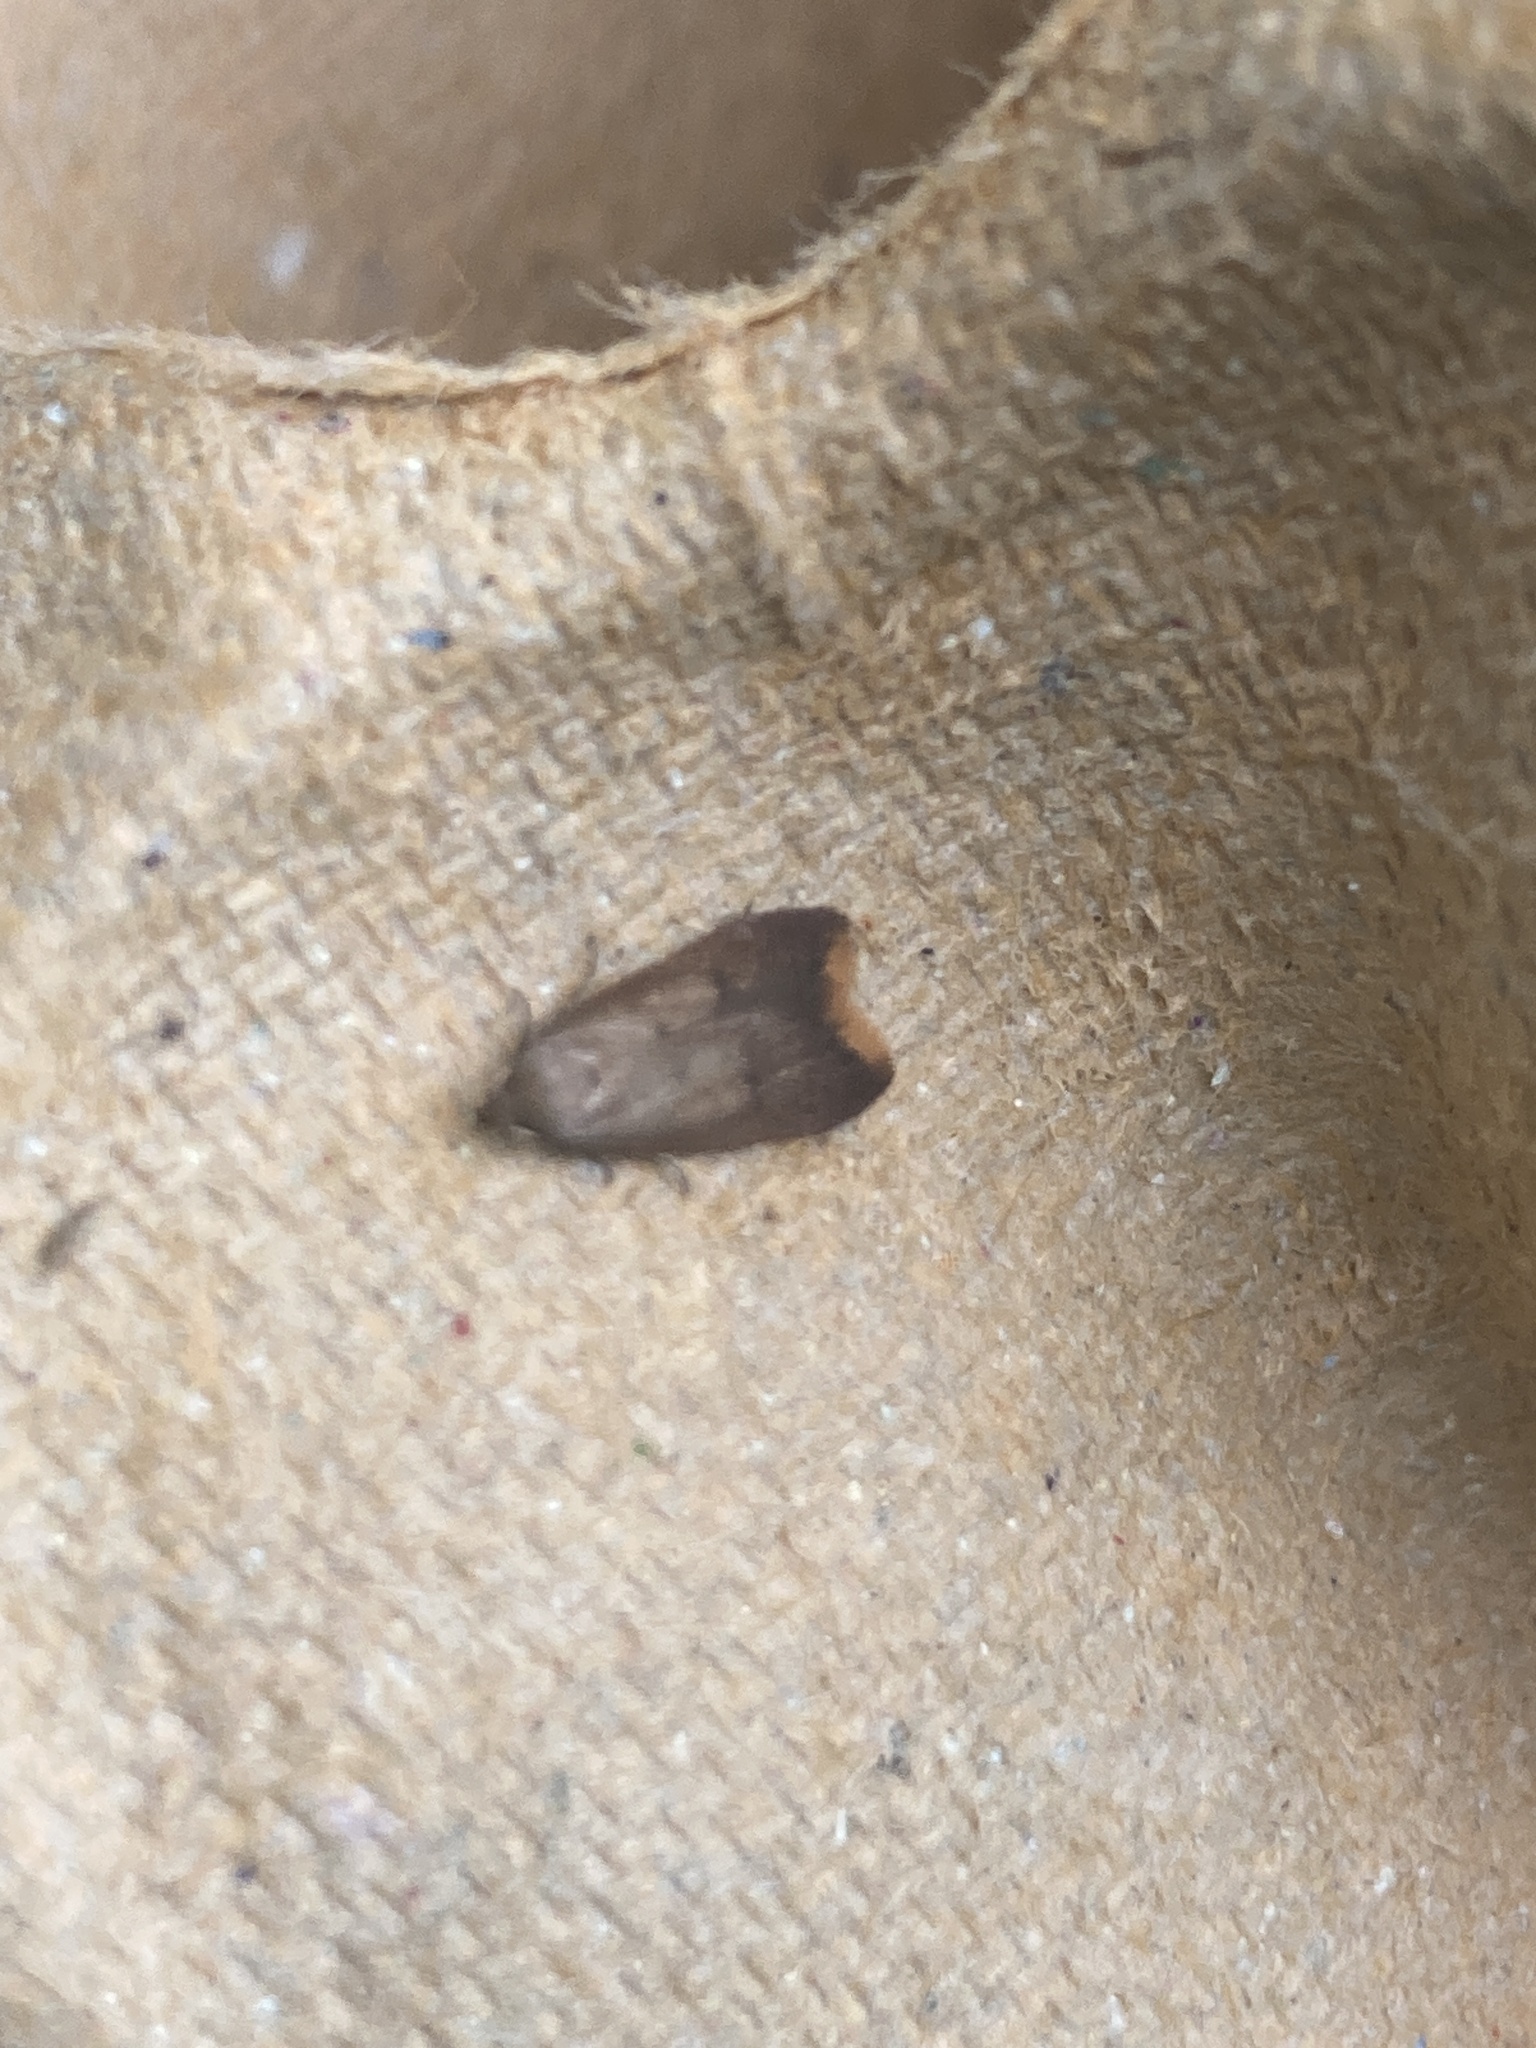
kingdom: Animalia
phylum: Arthropoda
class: Insecta
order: Lepidoptera
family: Oecophoridae
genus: Tachystola
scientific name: Tachystola acroxantha
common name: Ruddy streak
